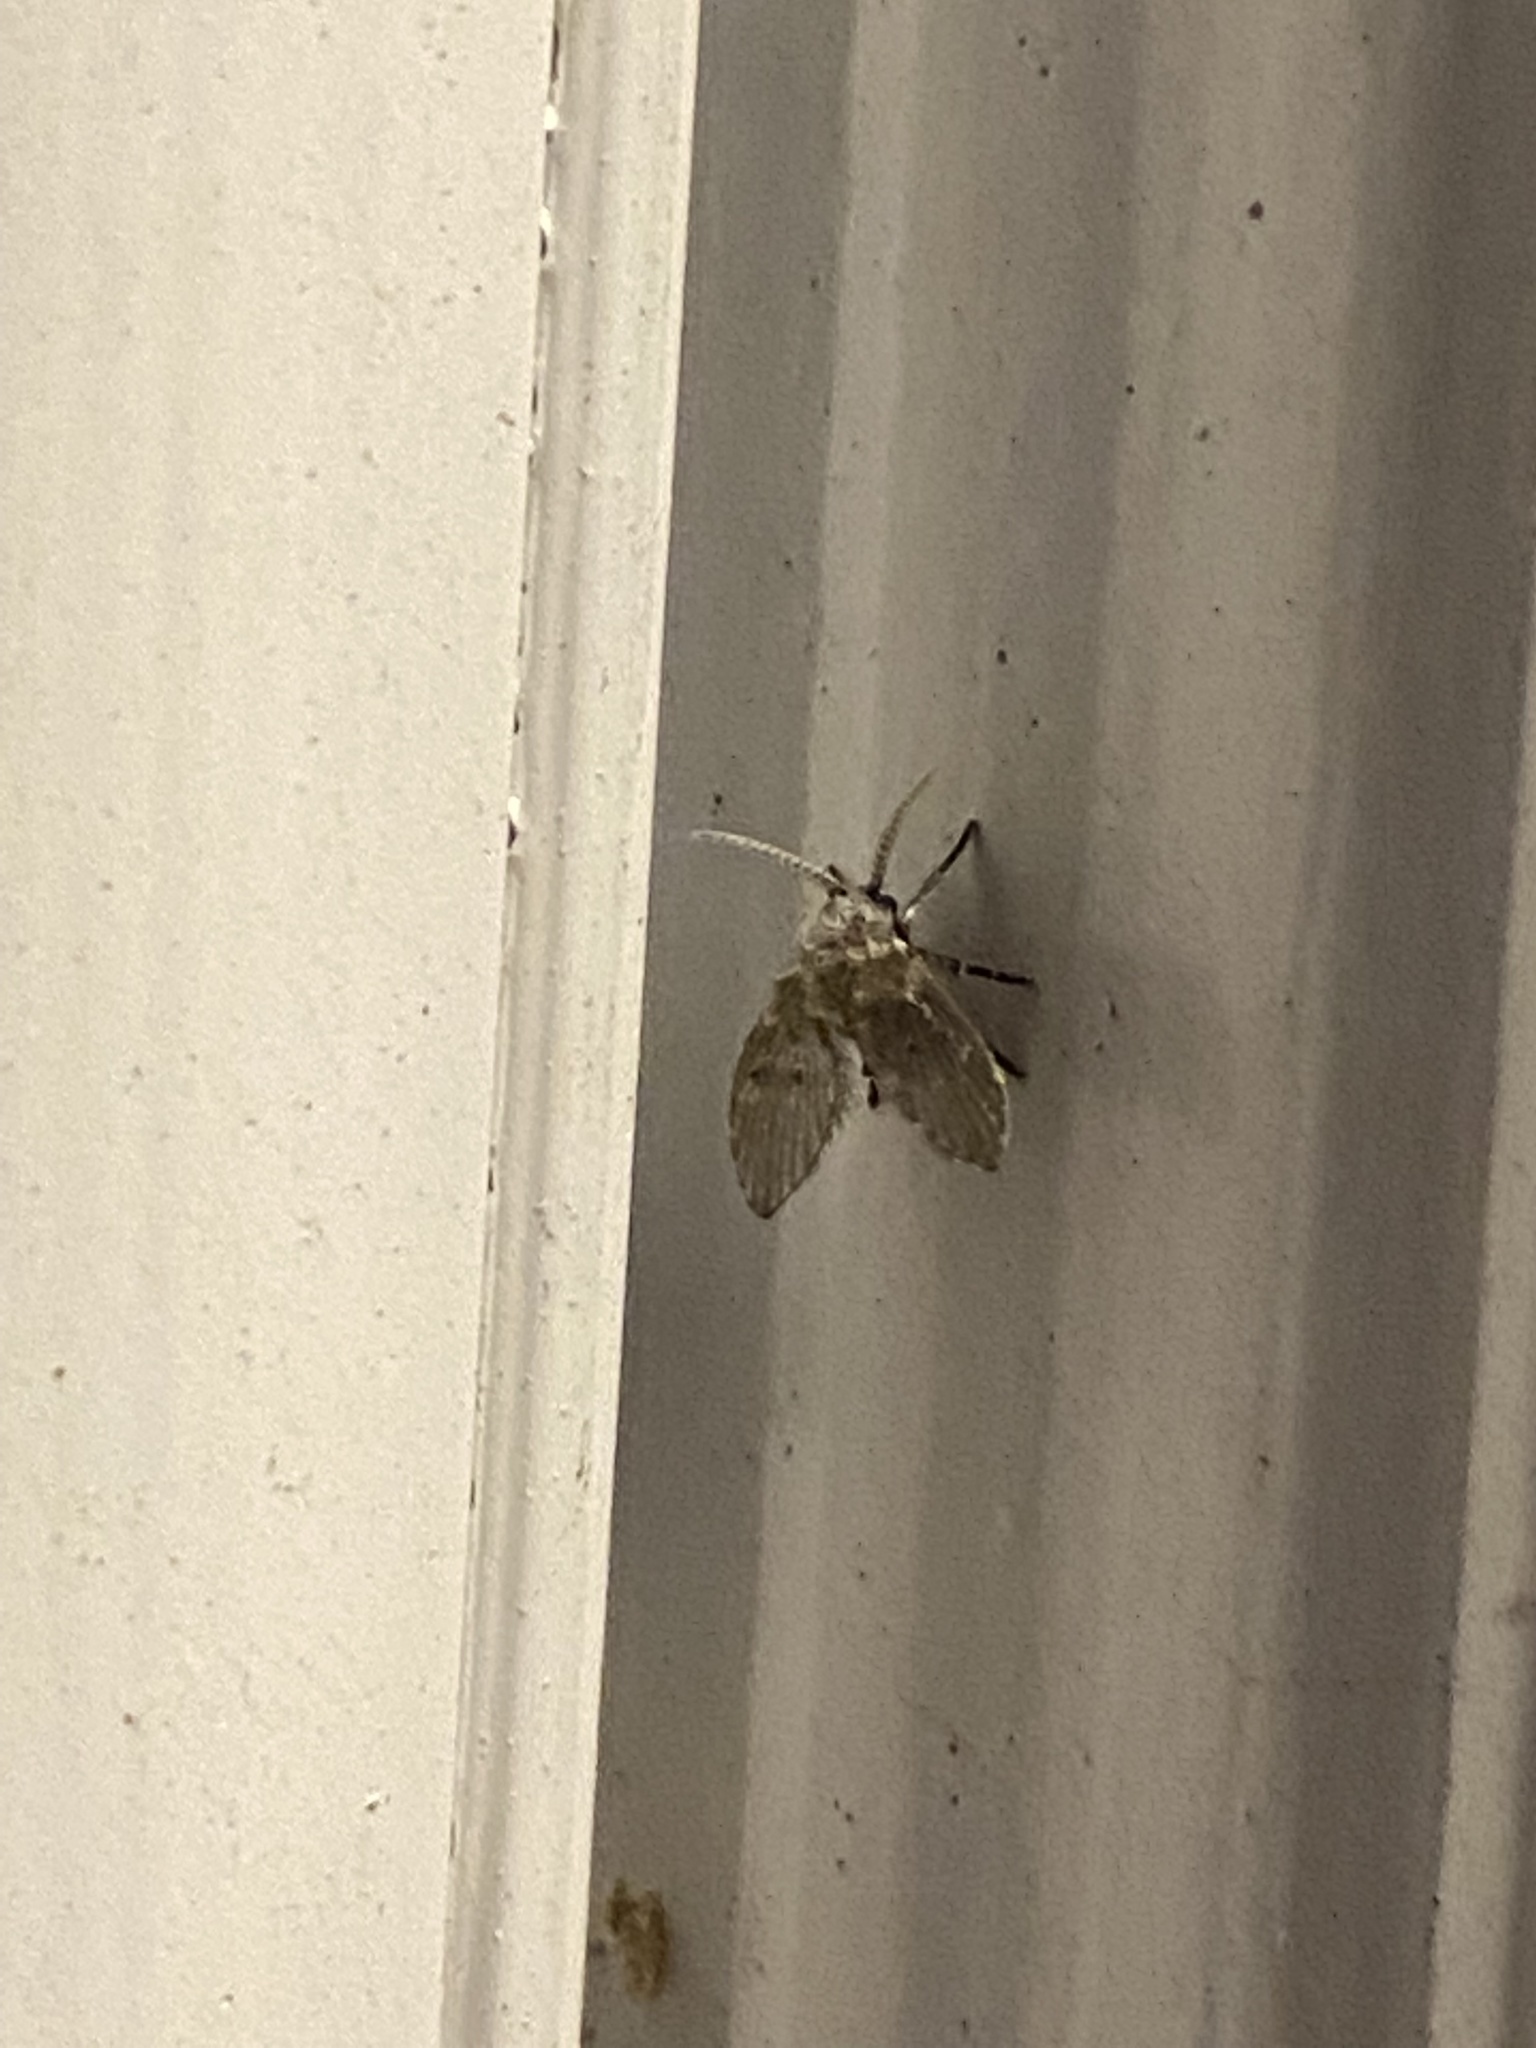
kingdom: Animalia
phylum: Arthropoda
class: Insecta
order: Diptera
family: Psychodidae
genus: Clogmia
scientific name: Clogmia albipunctatus
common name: White-spotted moth fly
